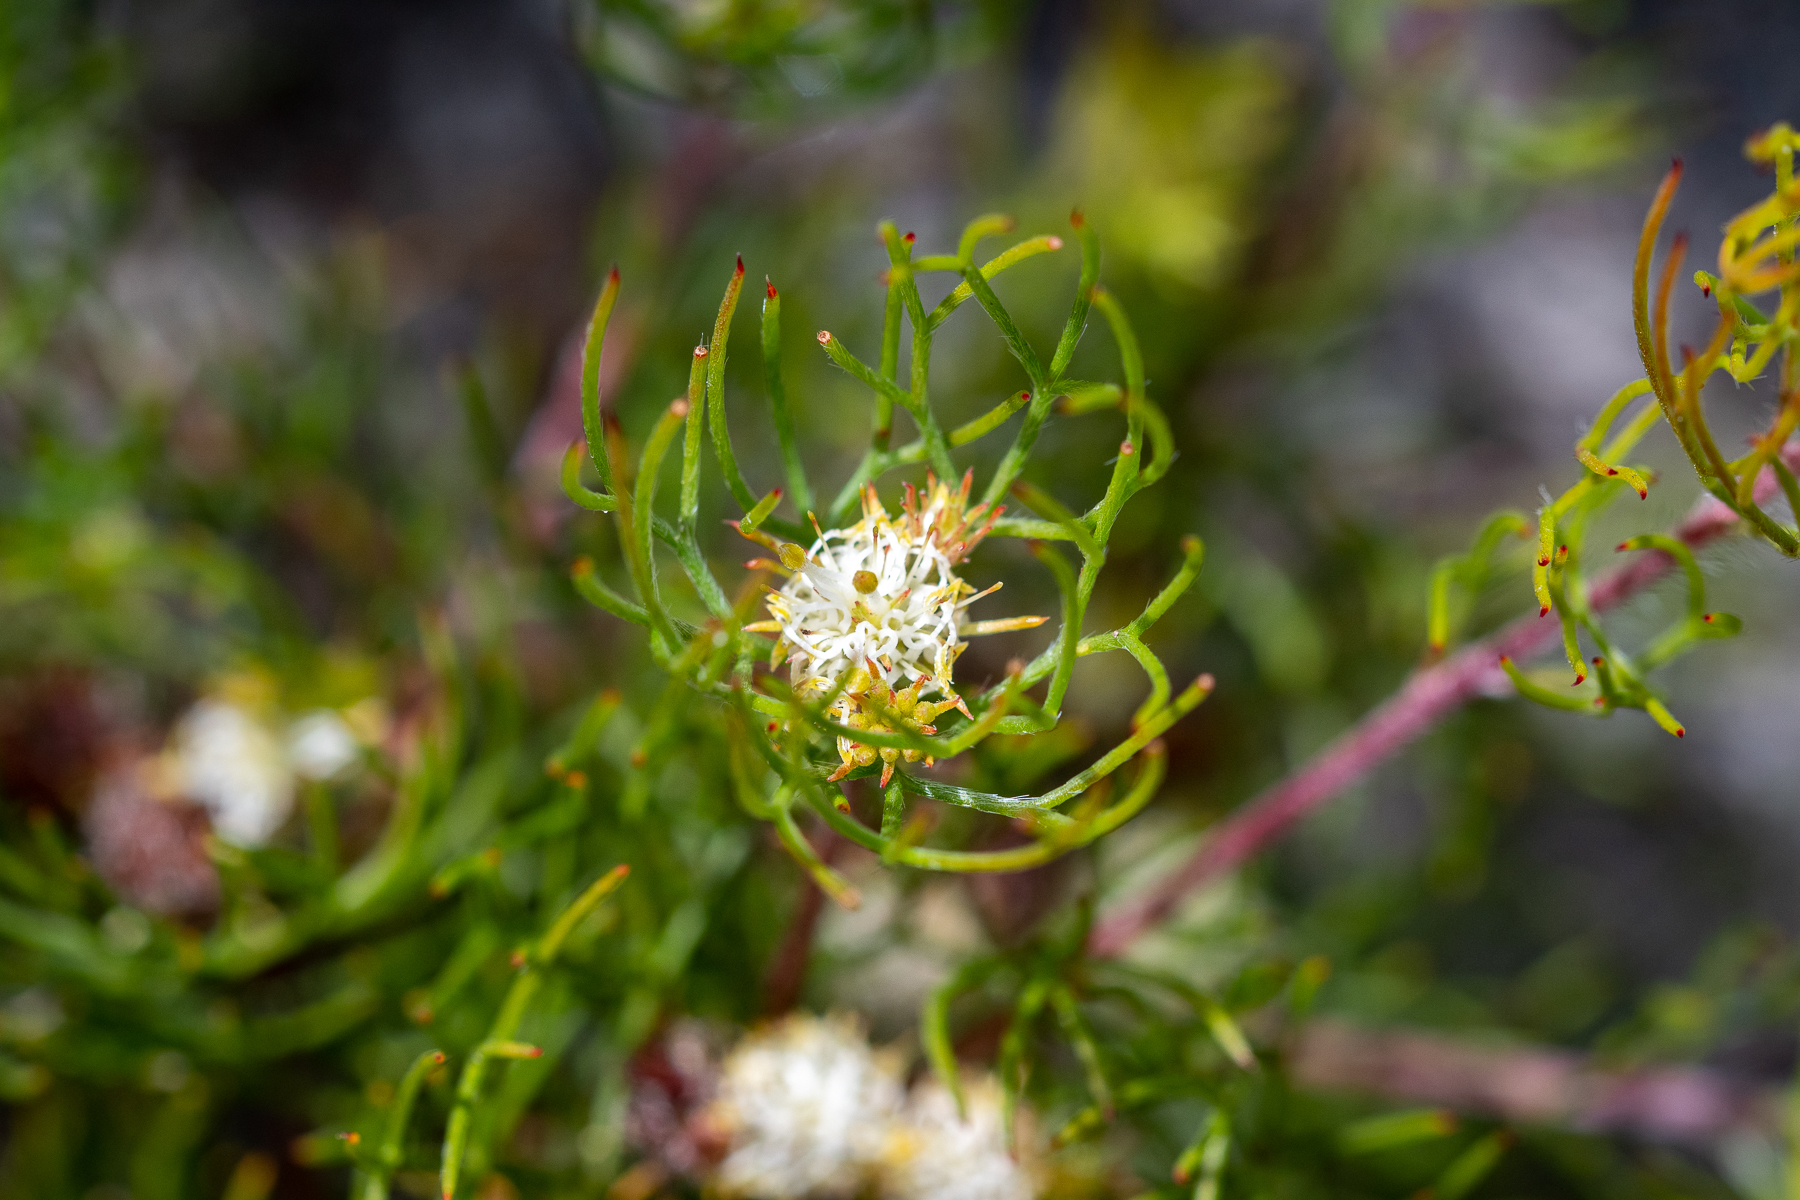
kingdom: Plantae
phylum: Tracheophyta
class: Magnoliopsida
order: Proteales
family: Proteaceae
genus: Serruria
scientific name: Serruria inconspicua
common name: Cryptic spiderhead
